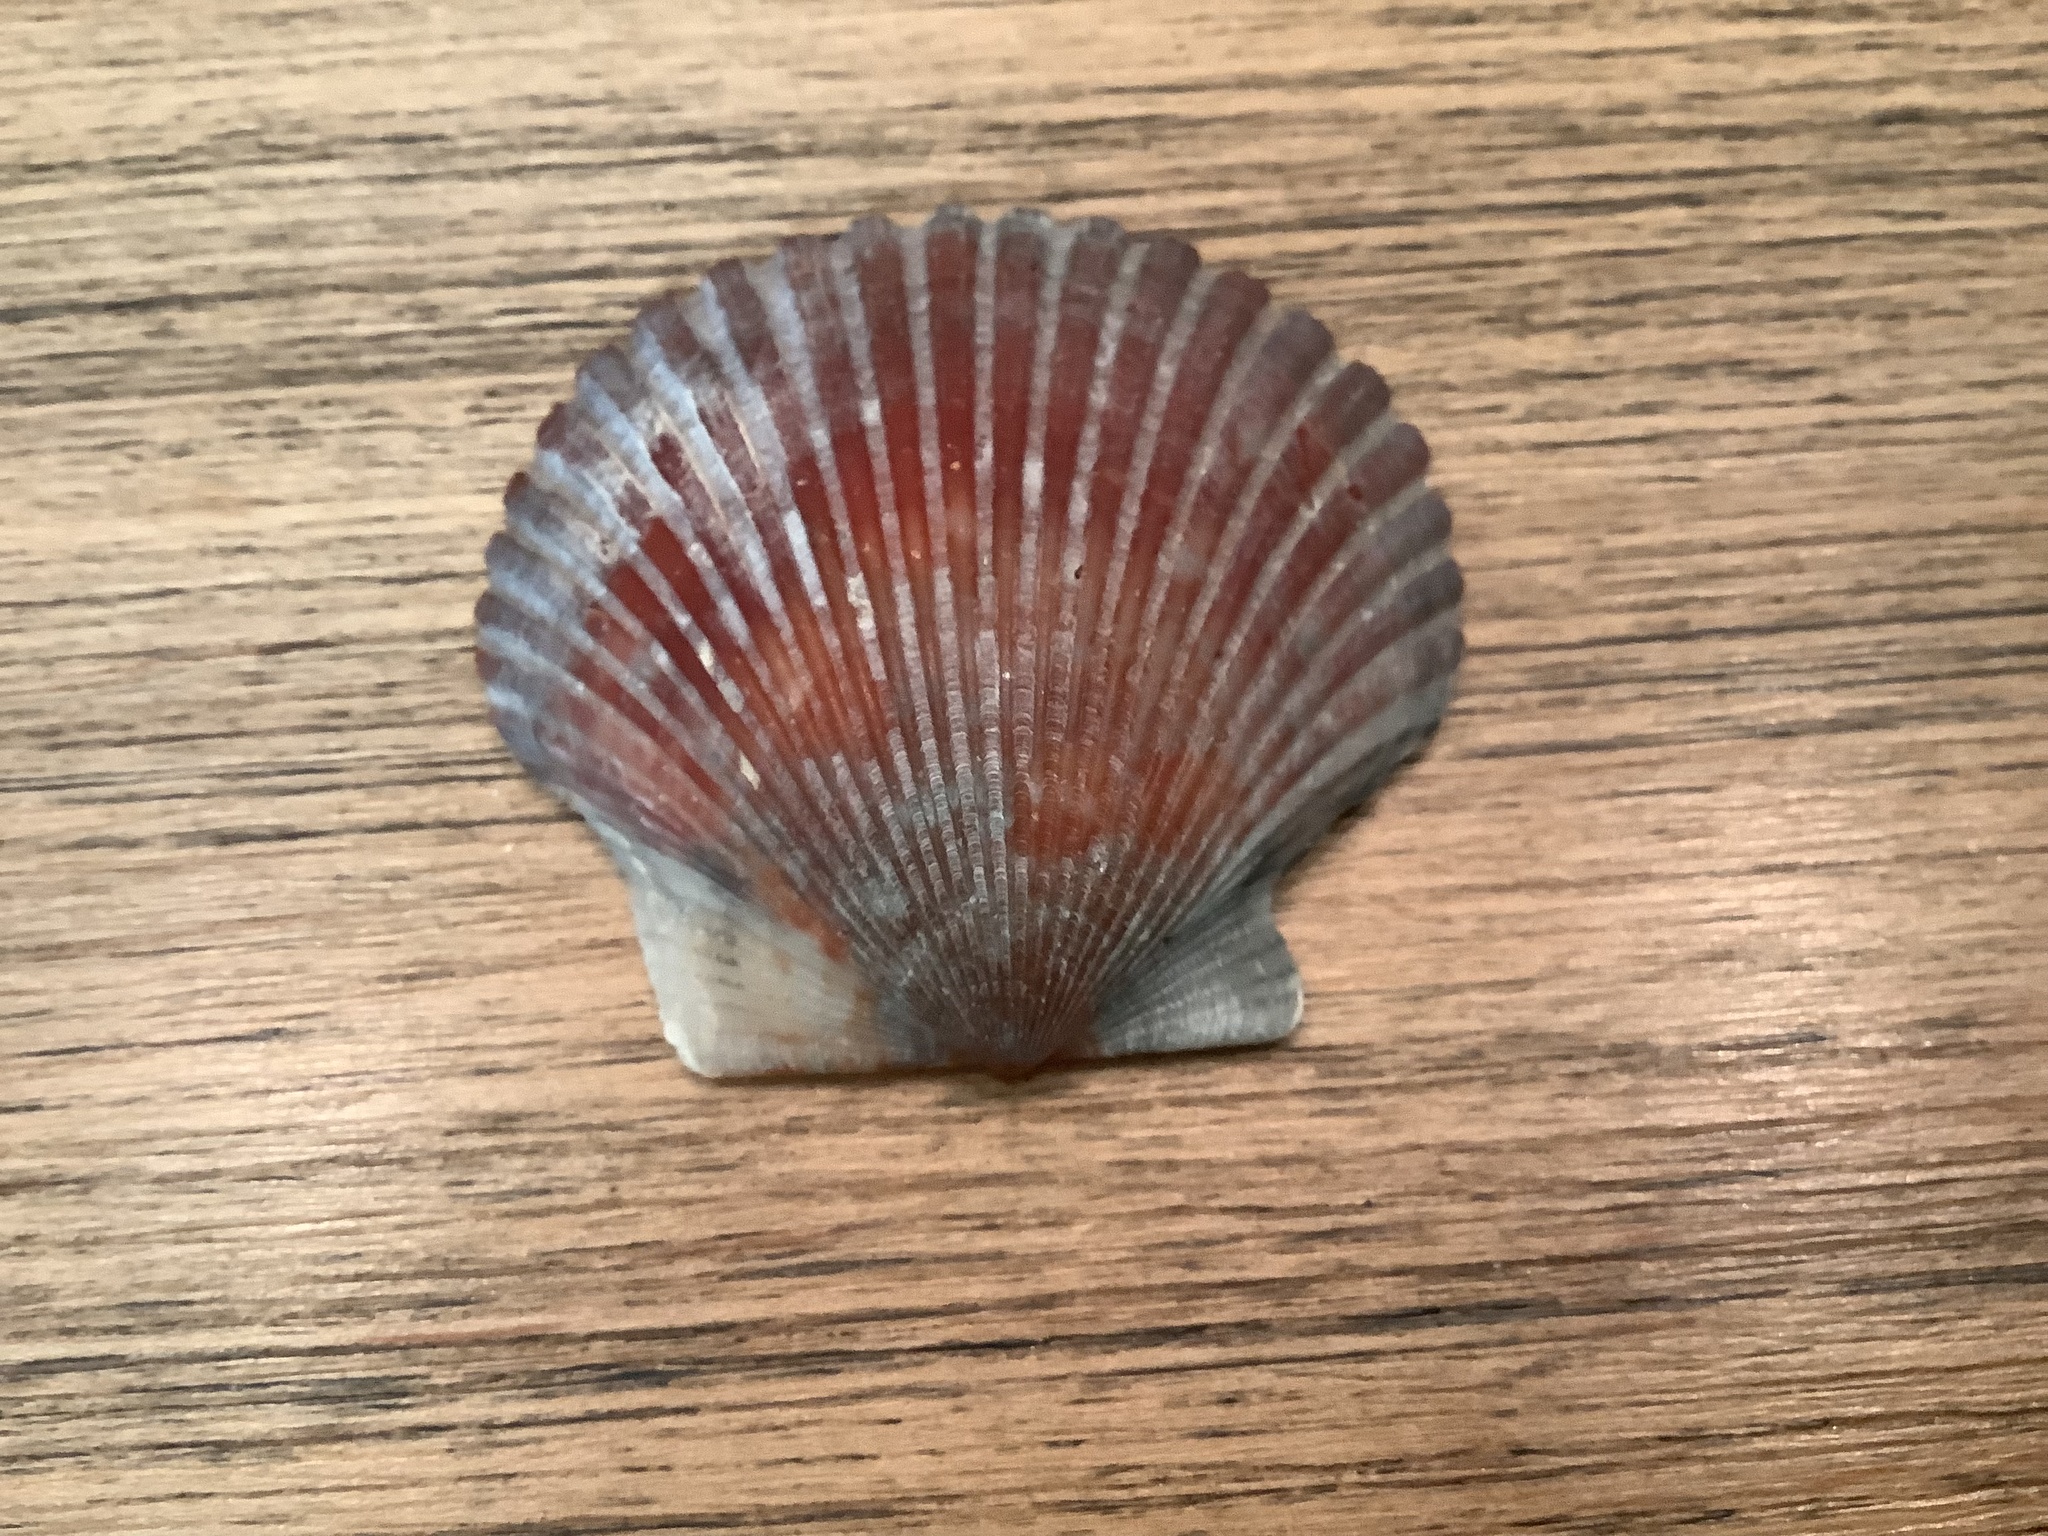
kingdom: Animalia
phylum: Mollusca
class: Bivalvia
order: Pectinida
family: Pectinidae
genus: Argopecten
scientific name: Argopecten irradians
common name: Atlantic bay scallop
